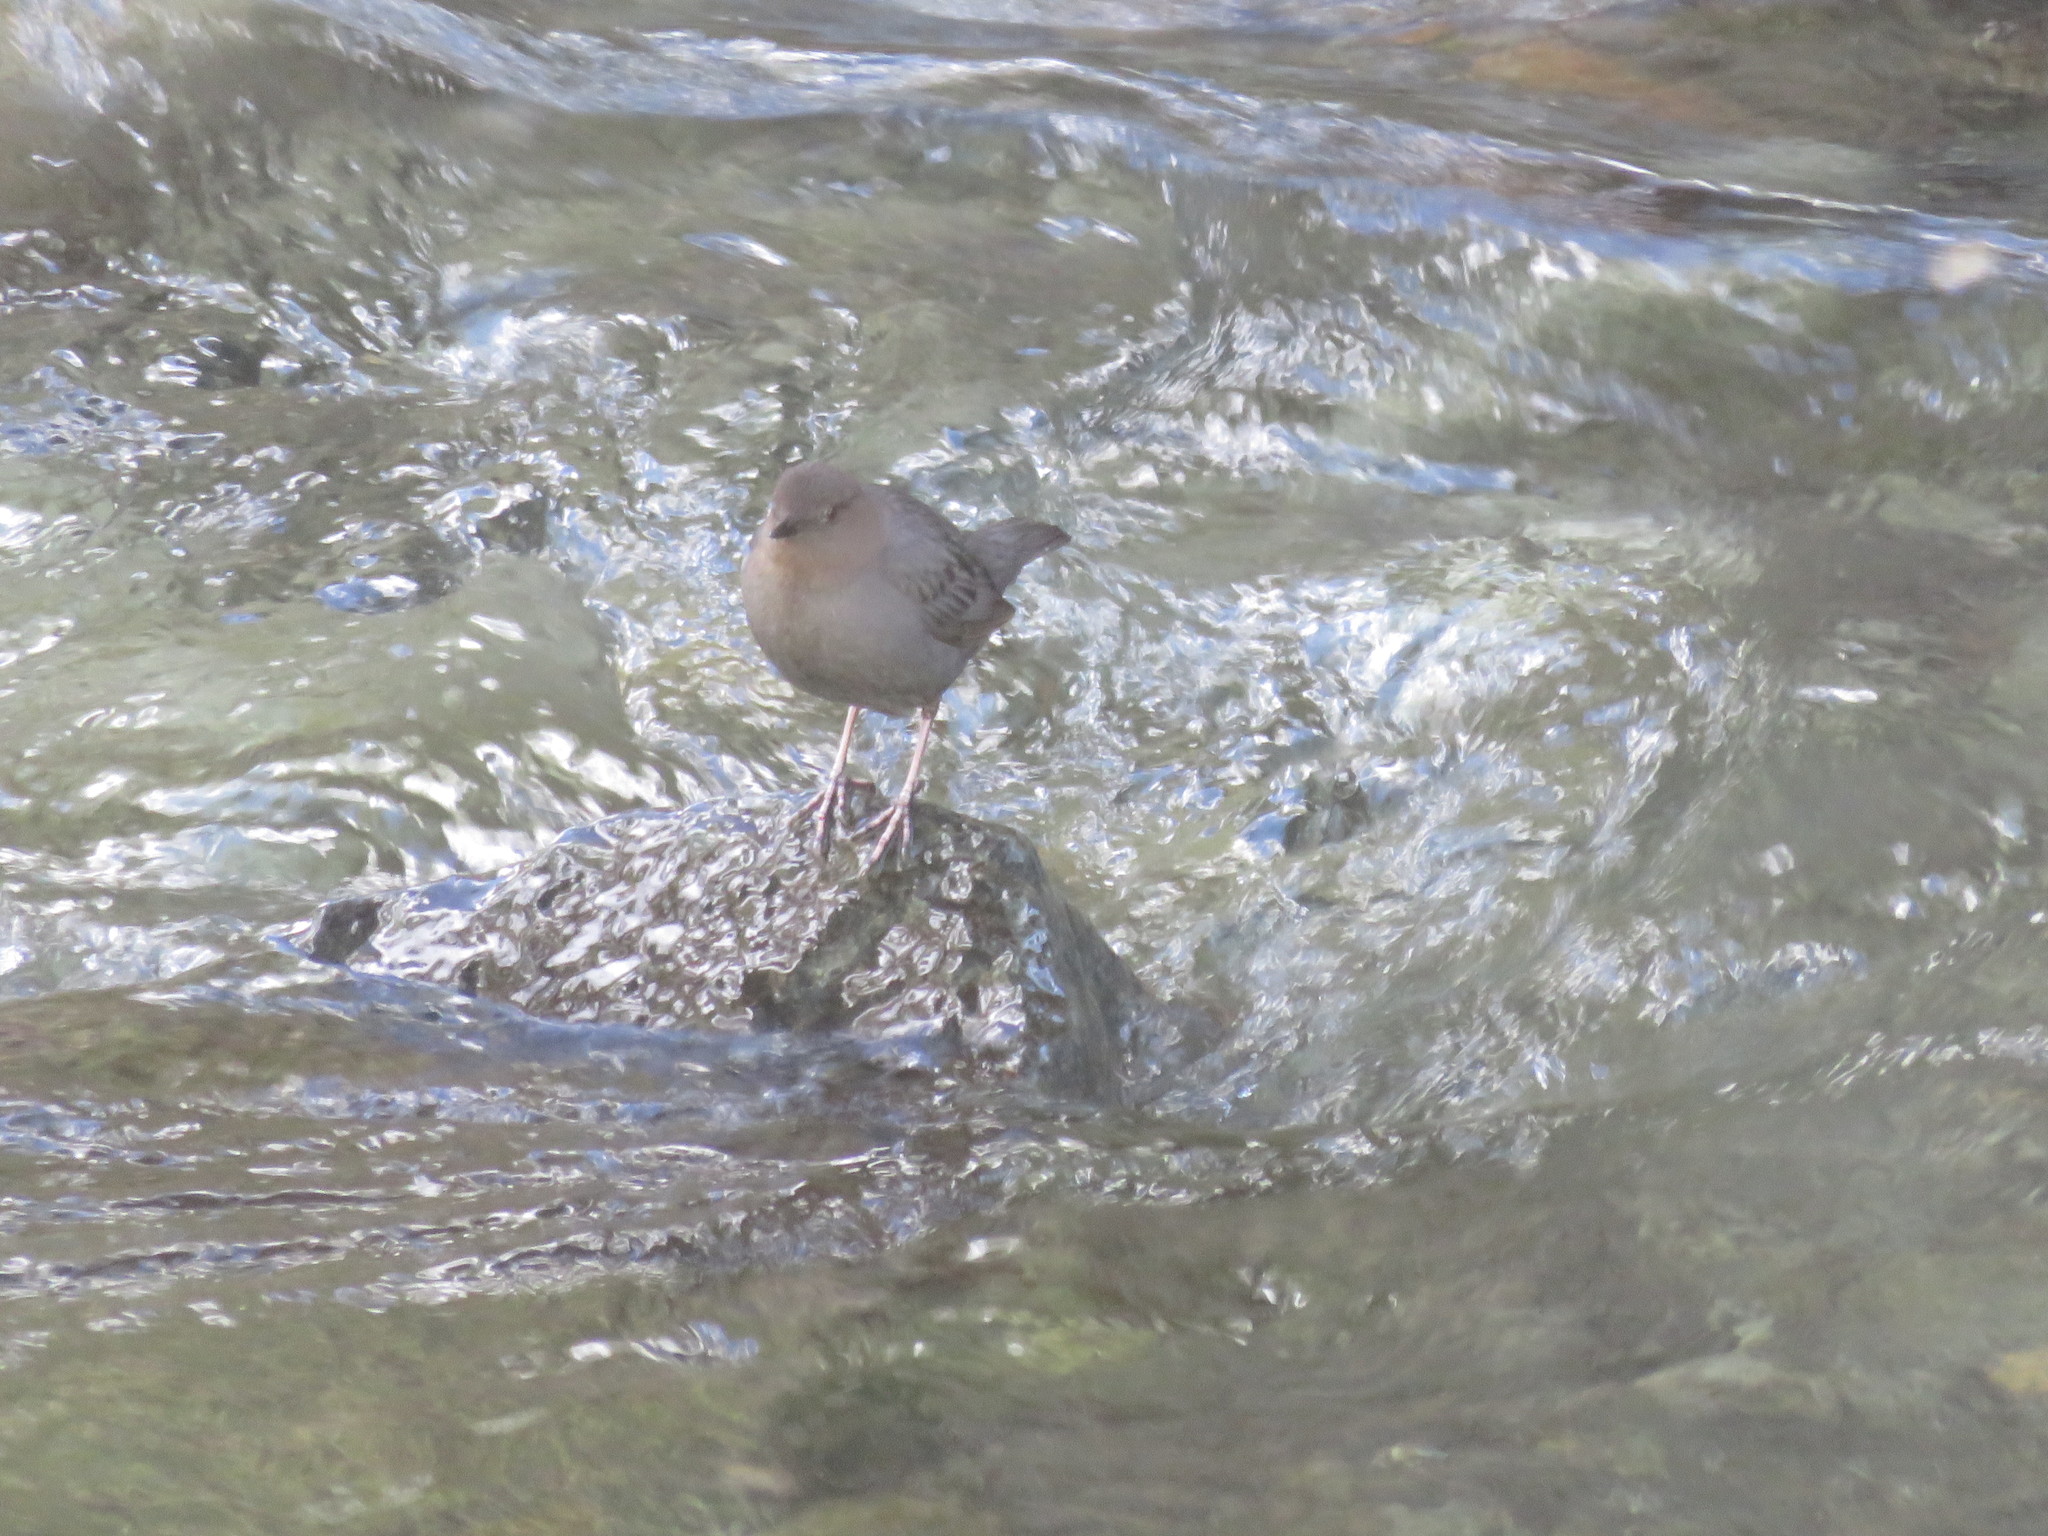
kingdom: Animalia
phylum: Chordata
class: Aves
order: Passeriformes
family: Cinclidae
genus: Cinclus
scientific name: Cinclus mexicanus
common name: American dipper
